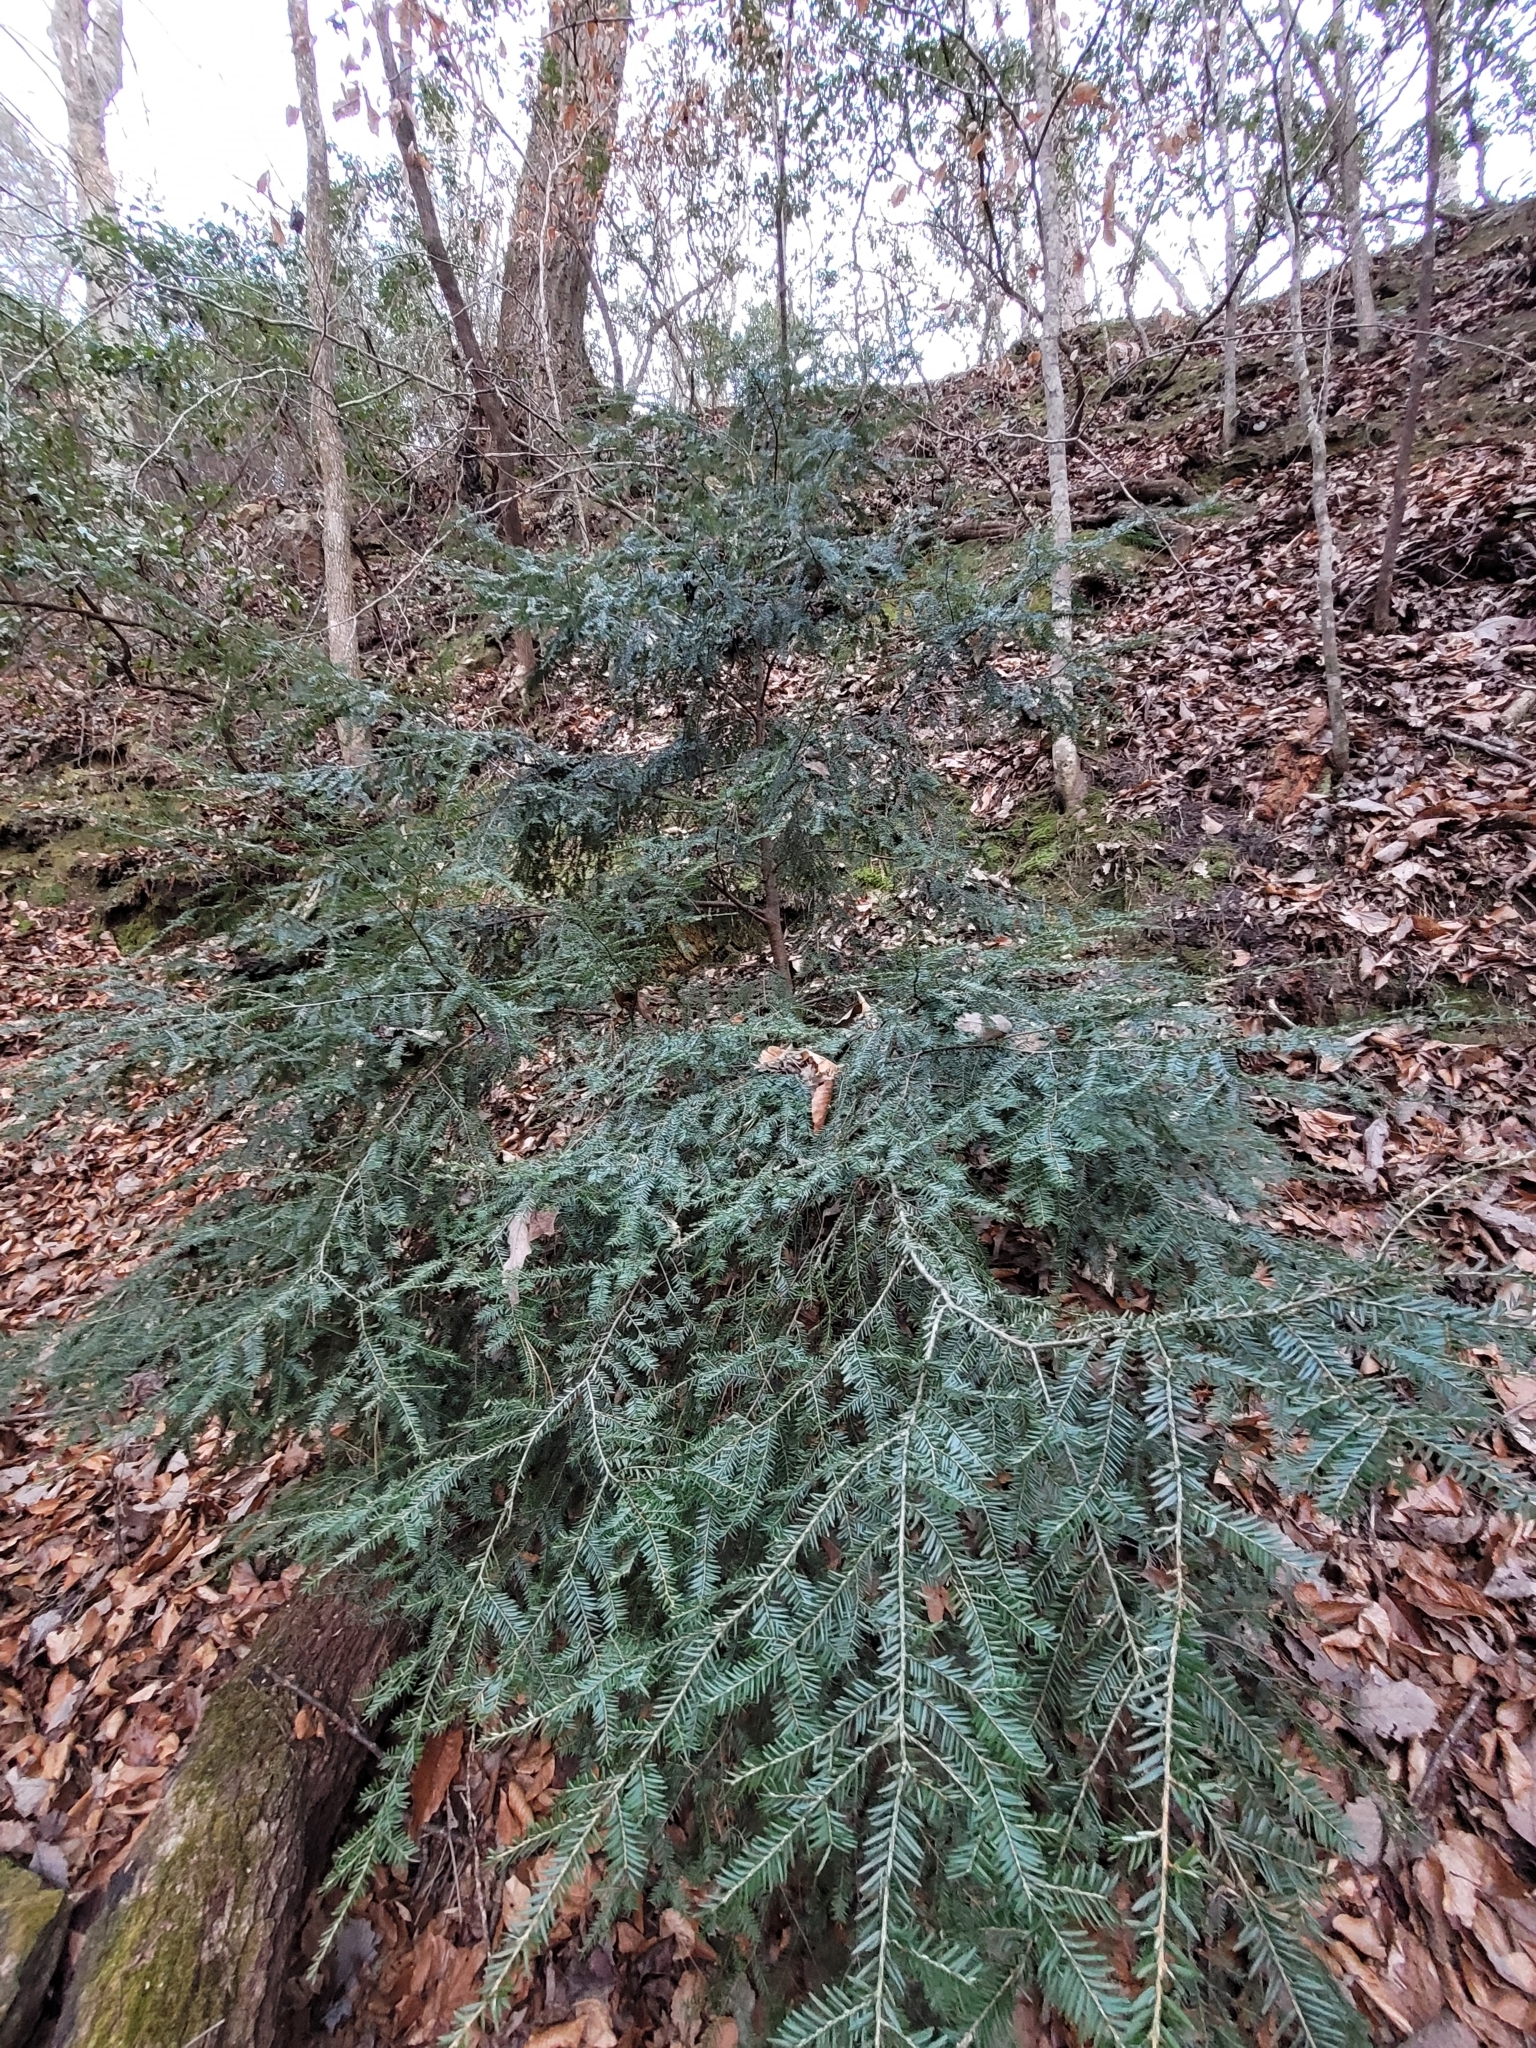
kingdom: Plantae
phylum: Tracheophyta
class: Pinopsida
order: Pinales
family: Pinaceae
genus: Tsuga
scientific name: Tsuga canadensis
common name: Eastern hemlock
